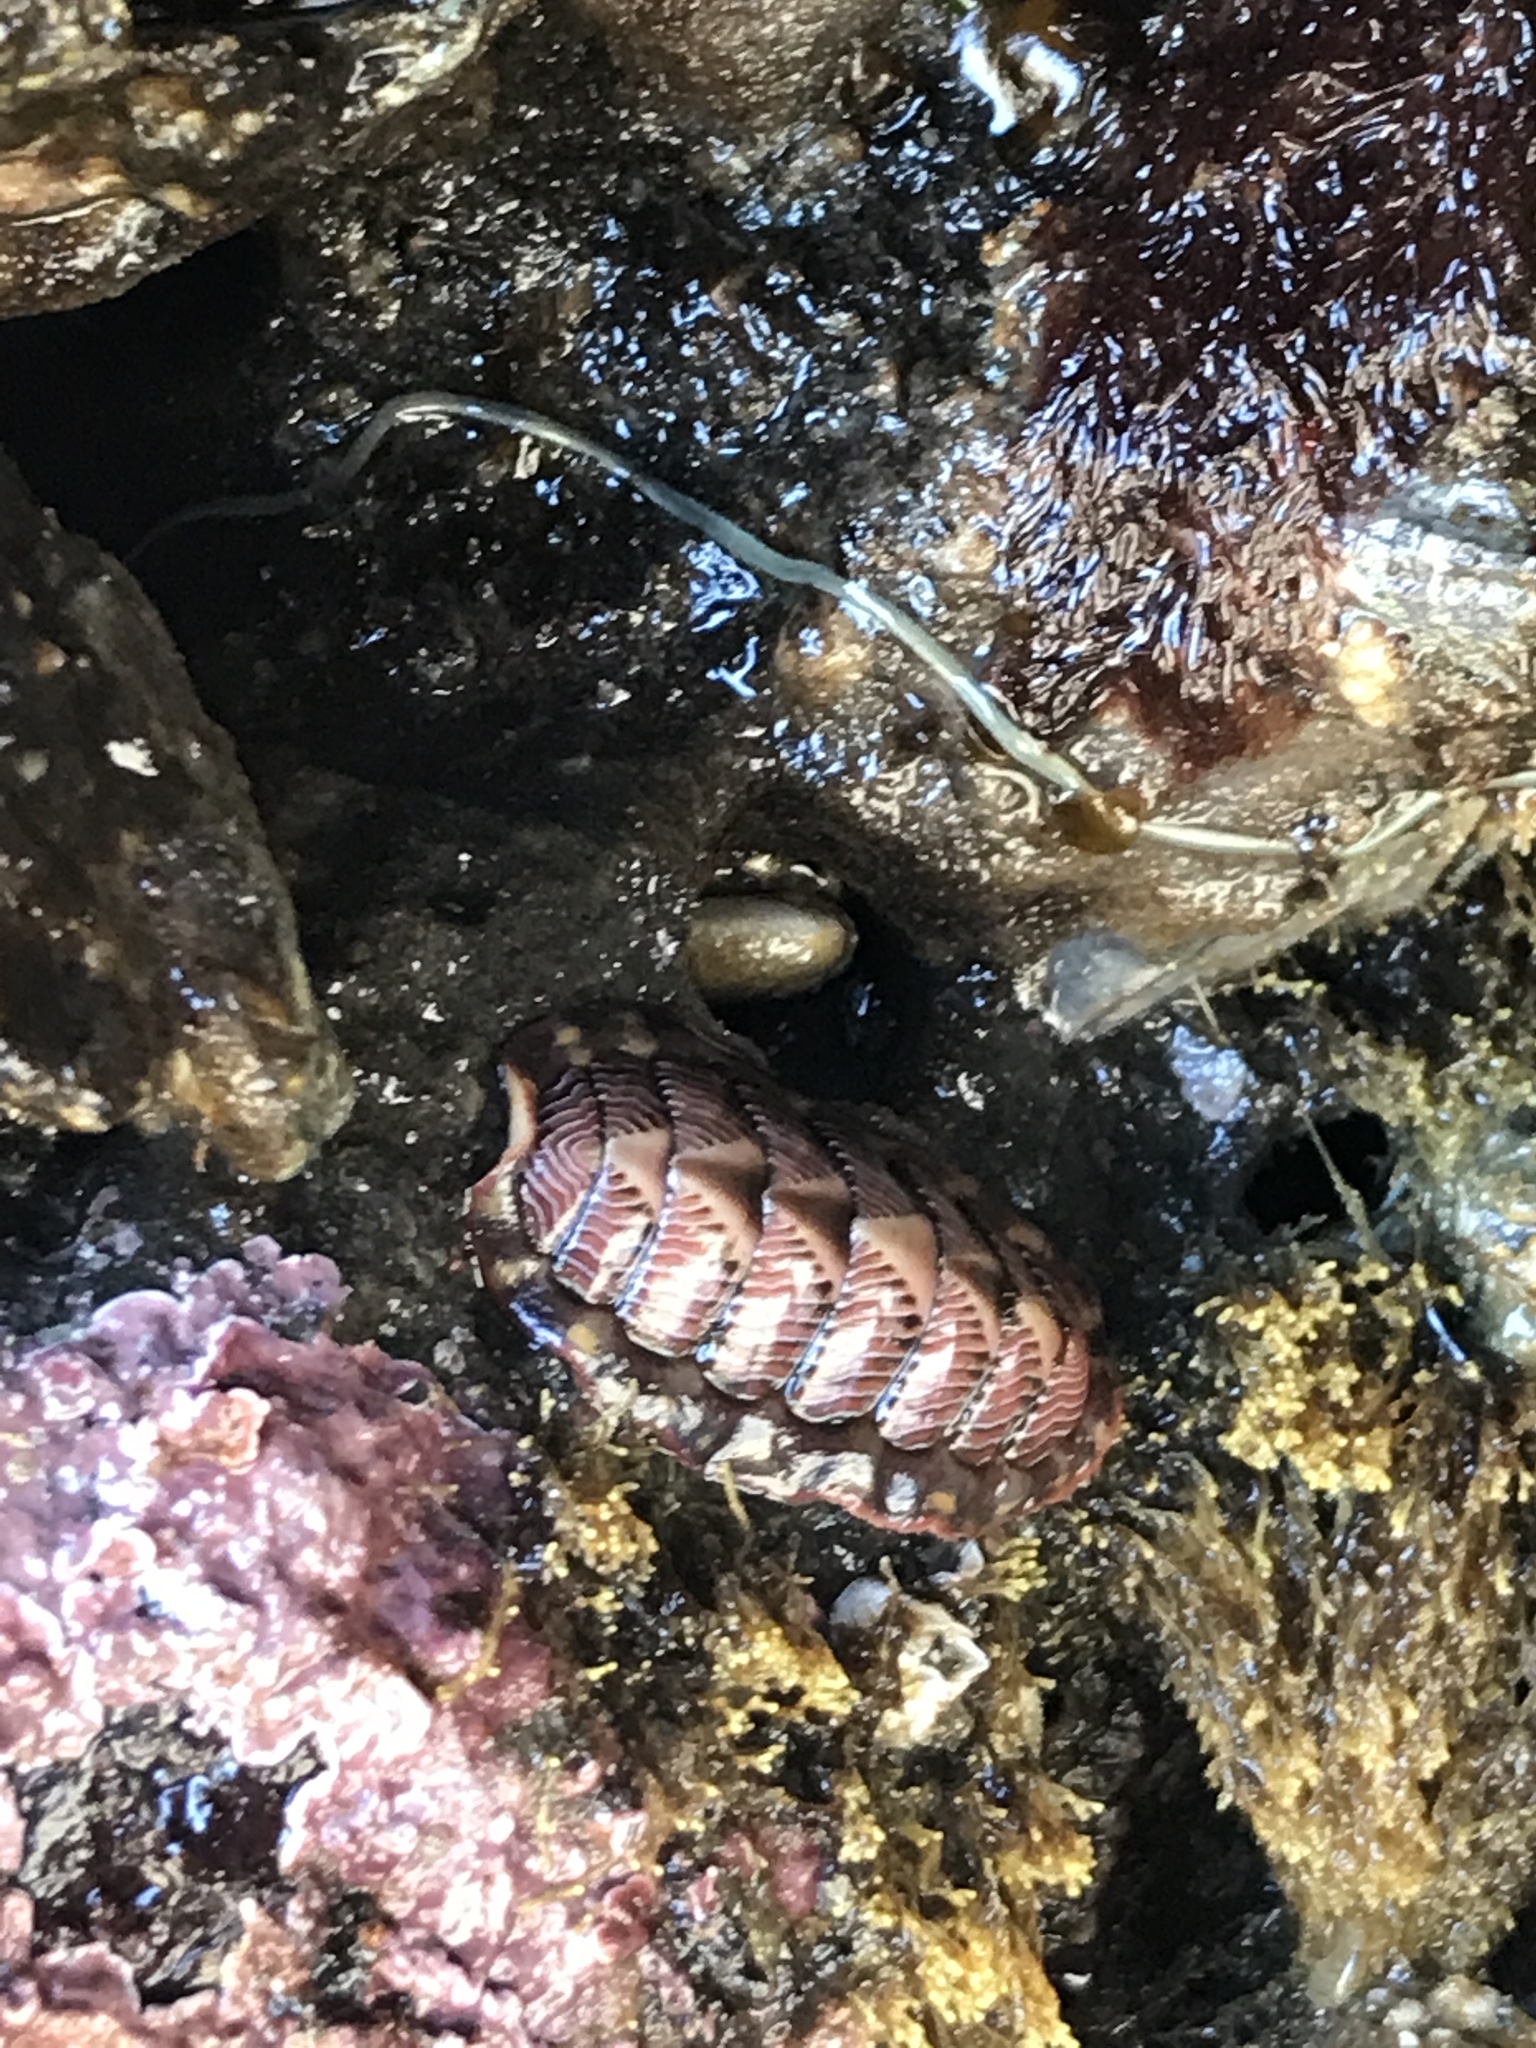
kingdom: Animalia
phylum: Mollusca
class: Polyplacophora
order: Chitonida
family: Tonicellidae
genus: Tonicella
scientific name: Tonicella lineata
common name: Lined chiton
